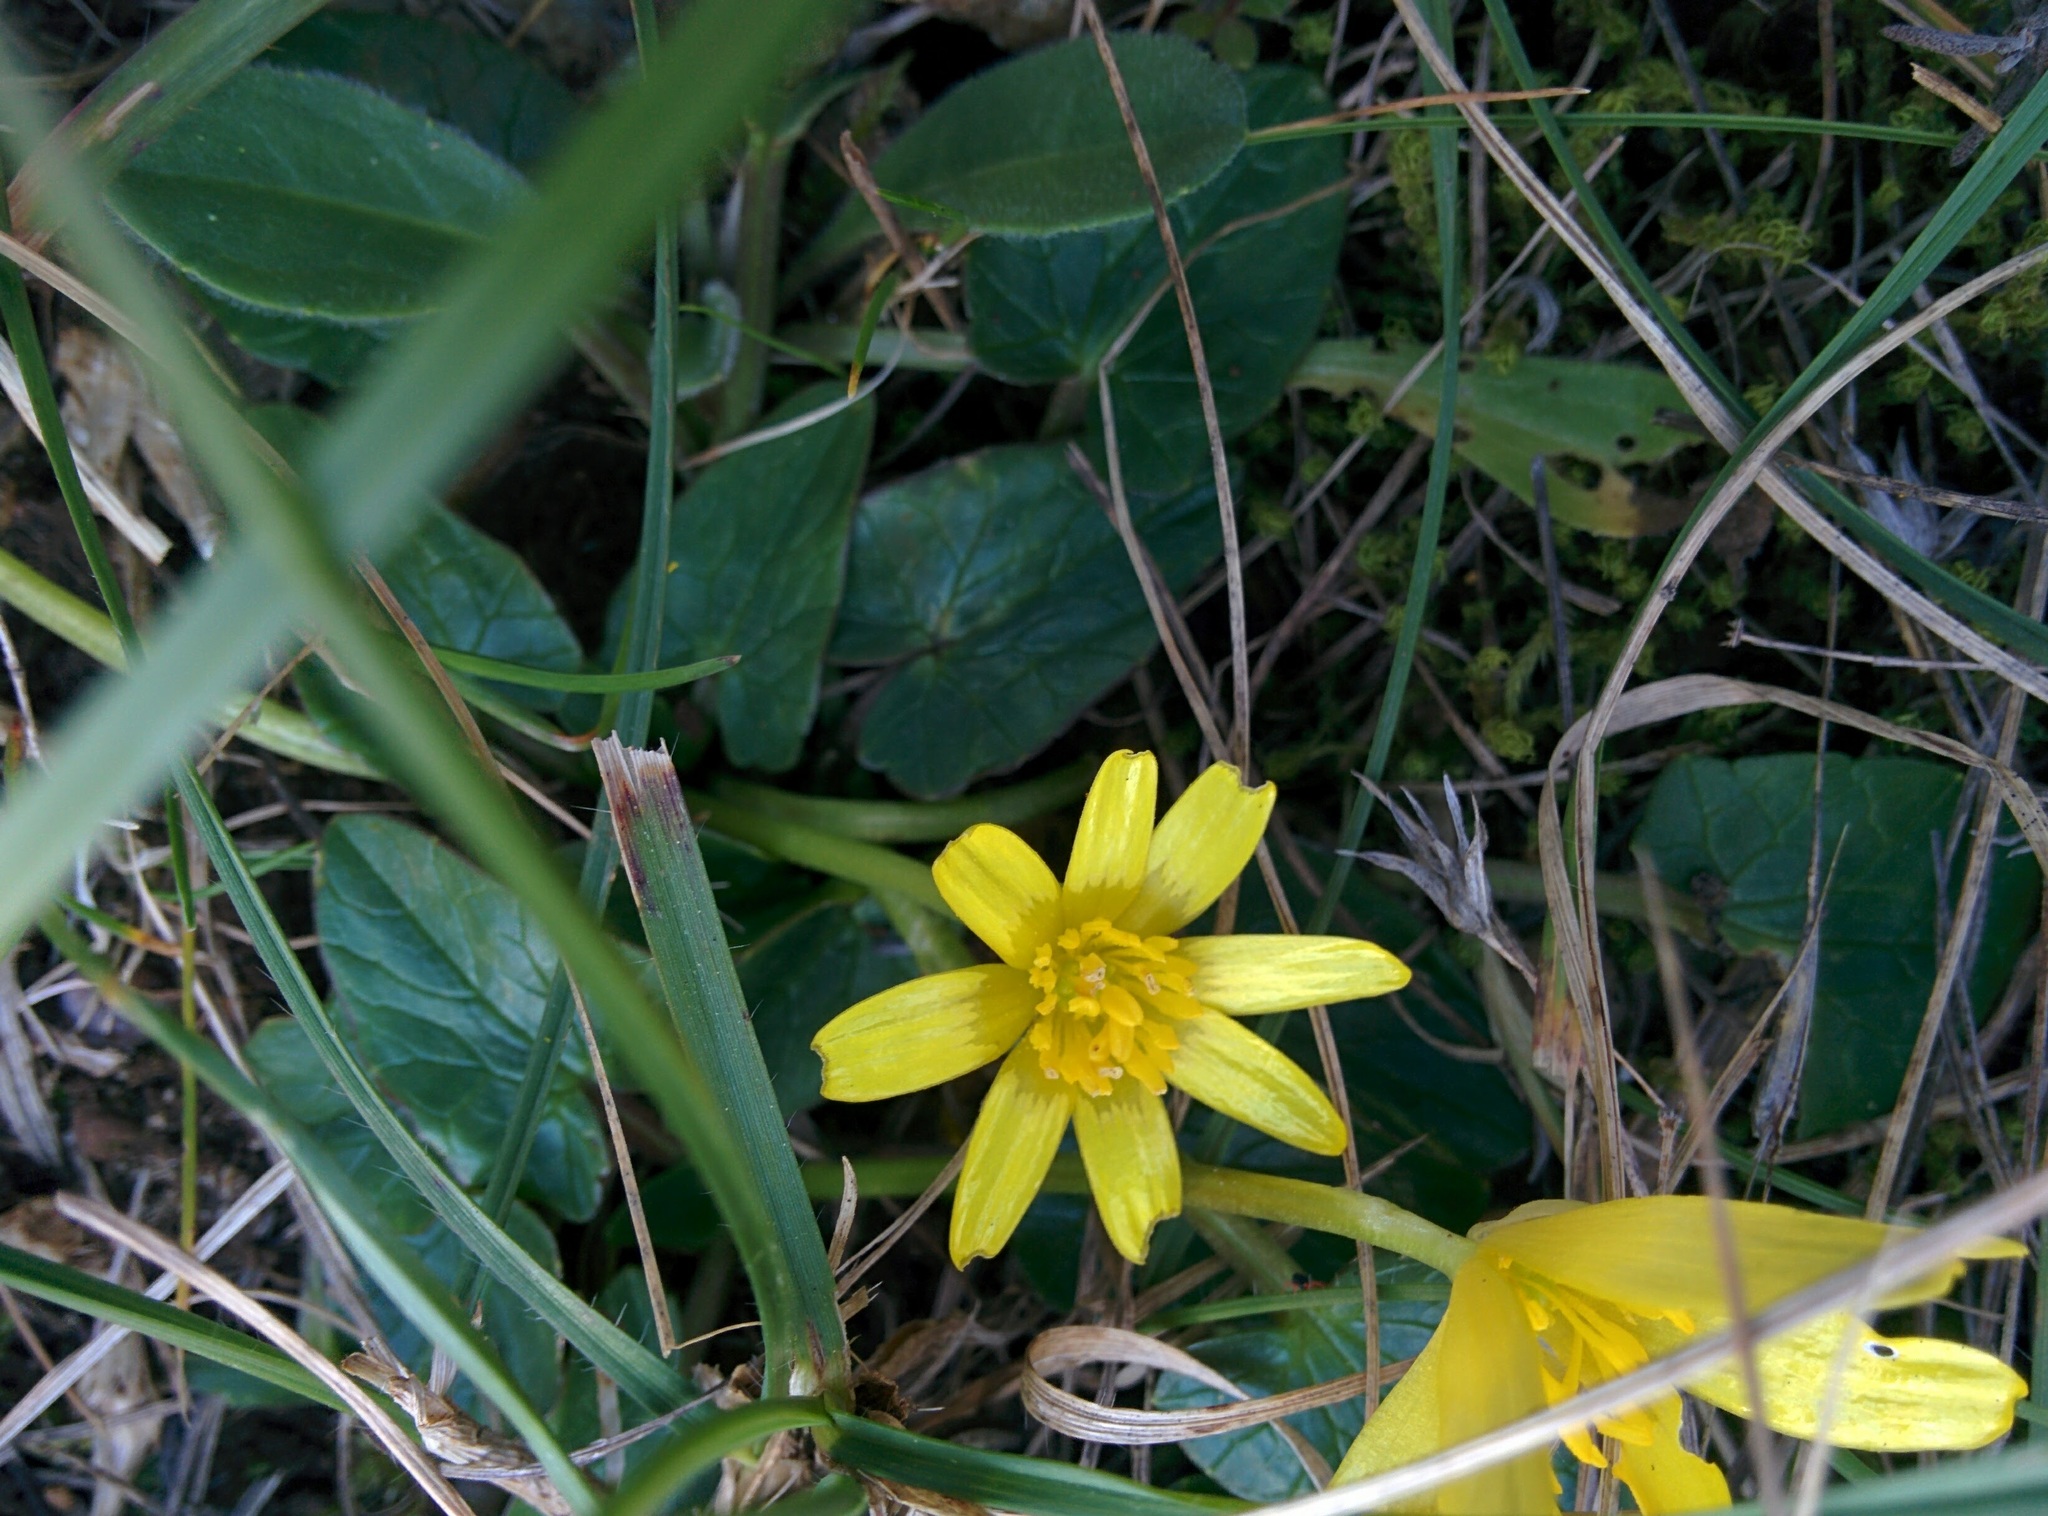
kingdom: Plantae
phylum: Tracheophyta
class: Magnoliopsida
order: Ranunculales
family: Ranunculaceae
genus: Ficaria
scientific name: Ficaria verna
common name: Lesser celandine
